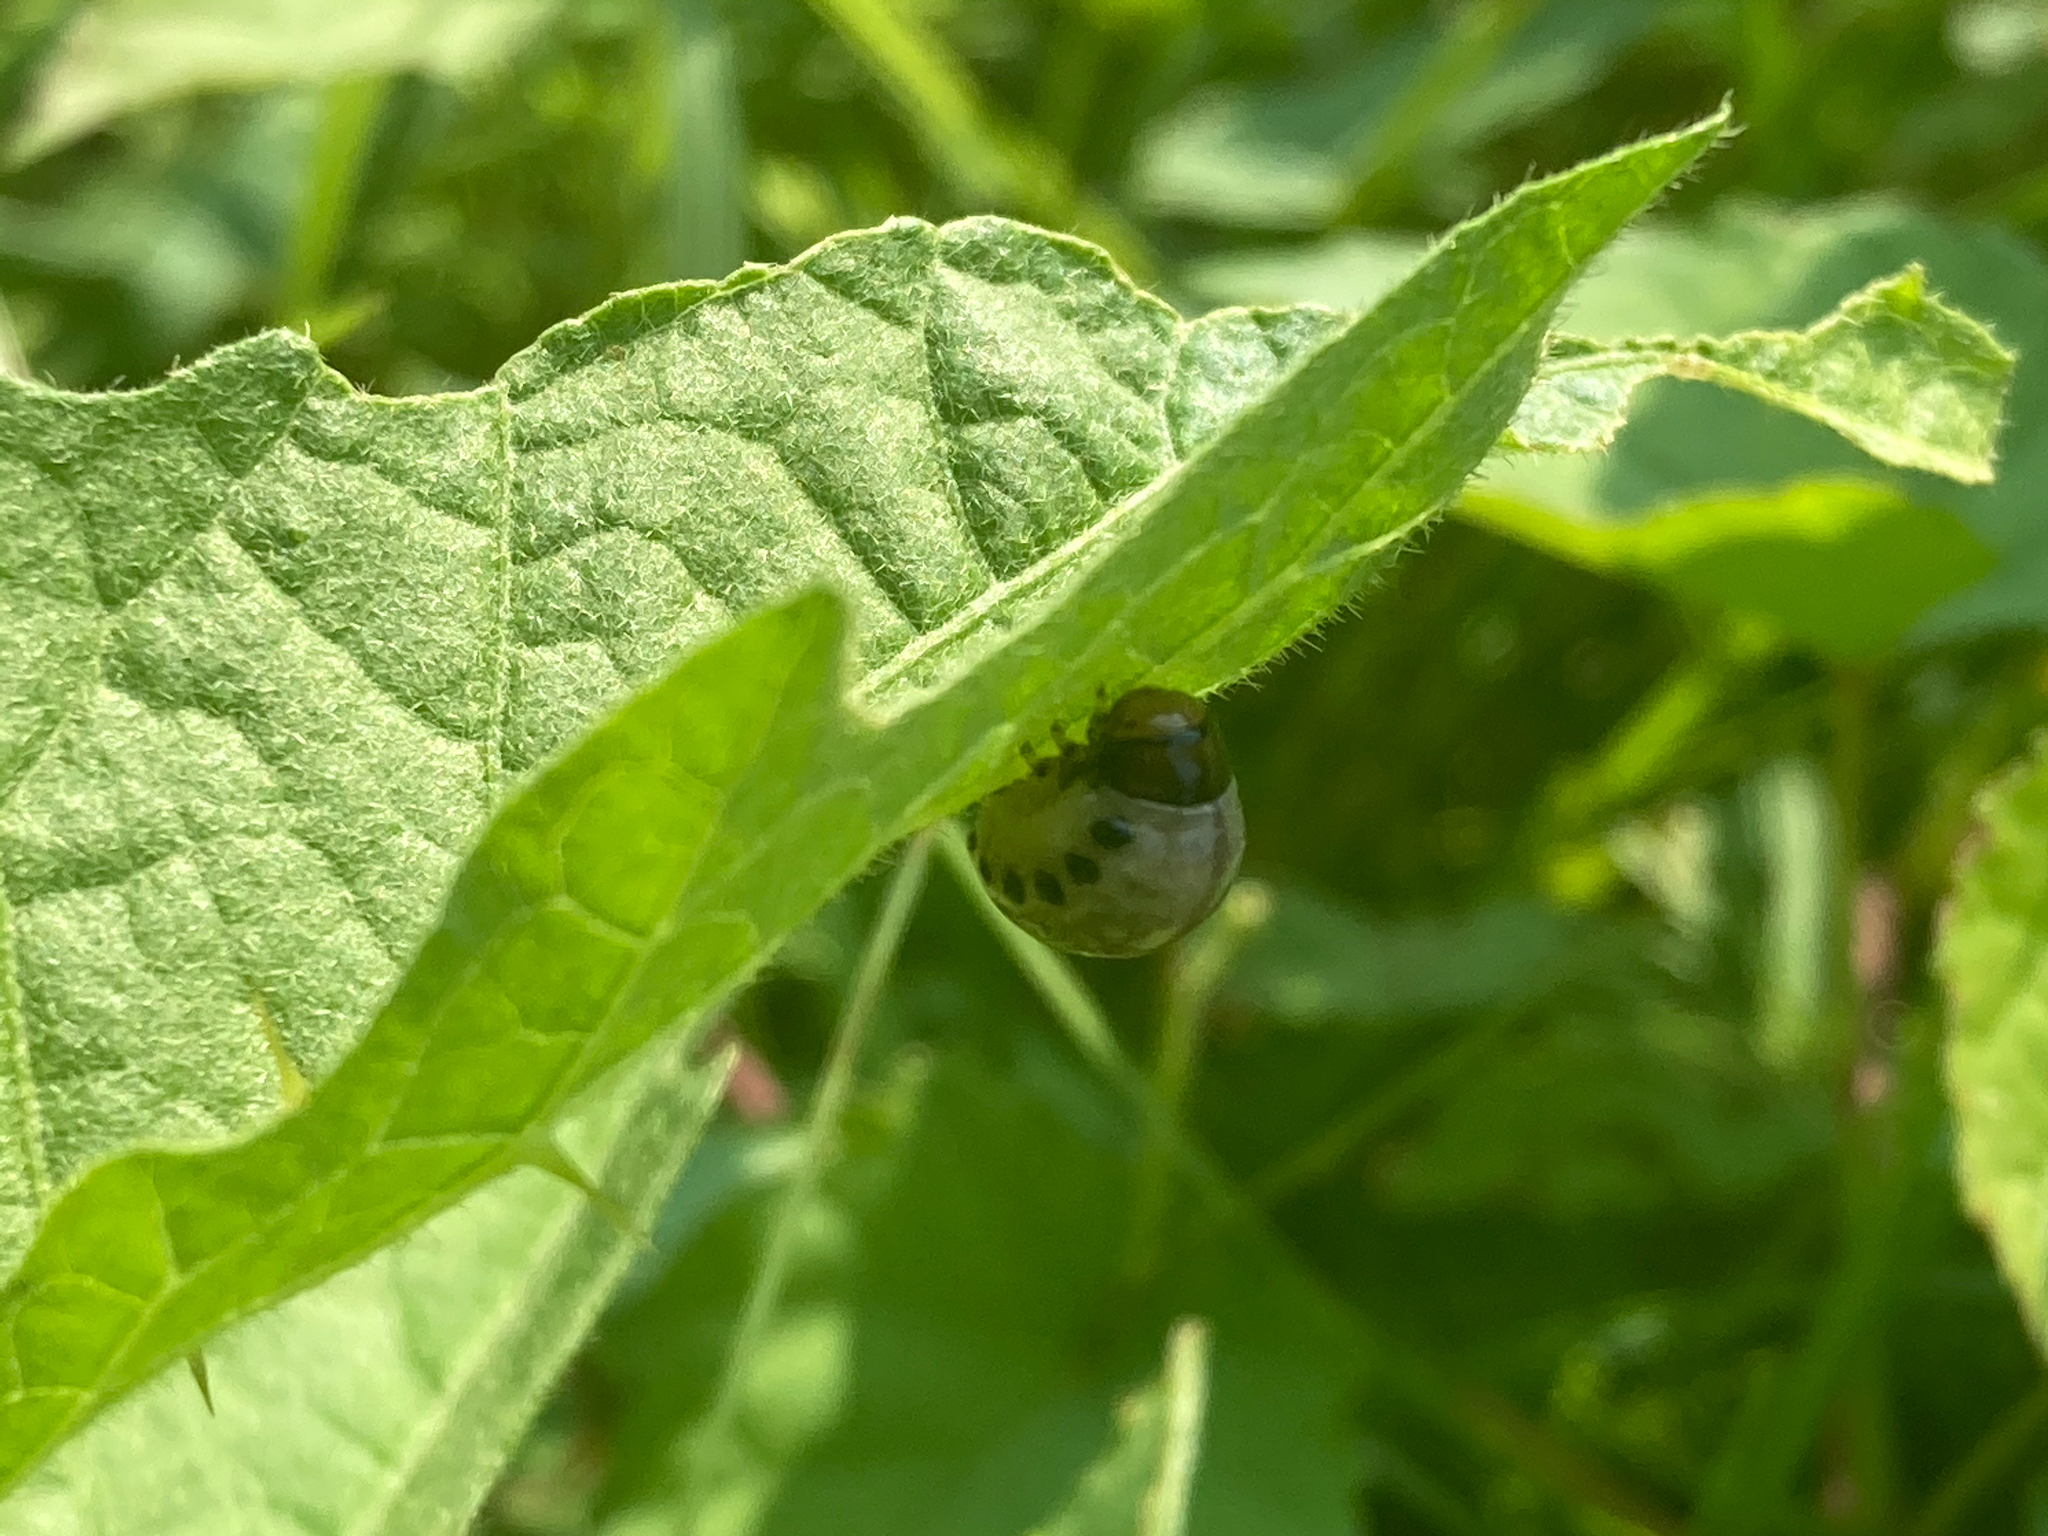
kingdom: Animalia
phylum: Arthropoda
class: Insecta
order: Coleoptera
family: Chrysomelidae
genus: Leptinotarsa
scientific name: Leptinotarsa juncta
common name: False potato beetle
